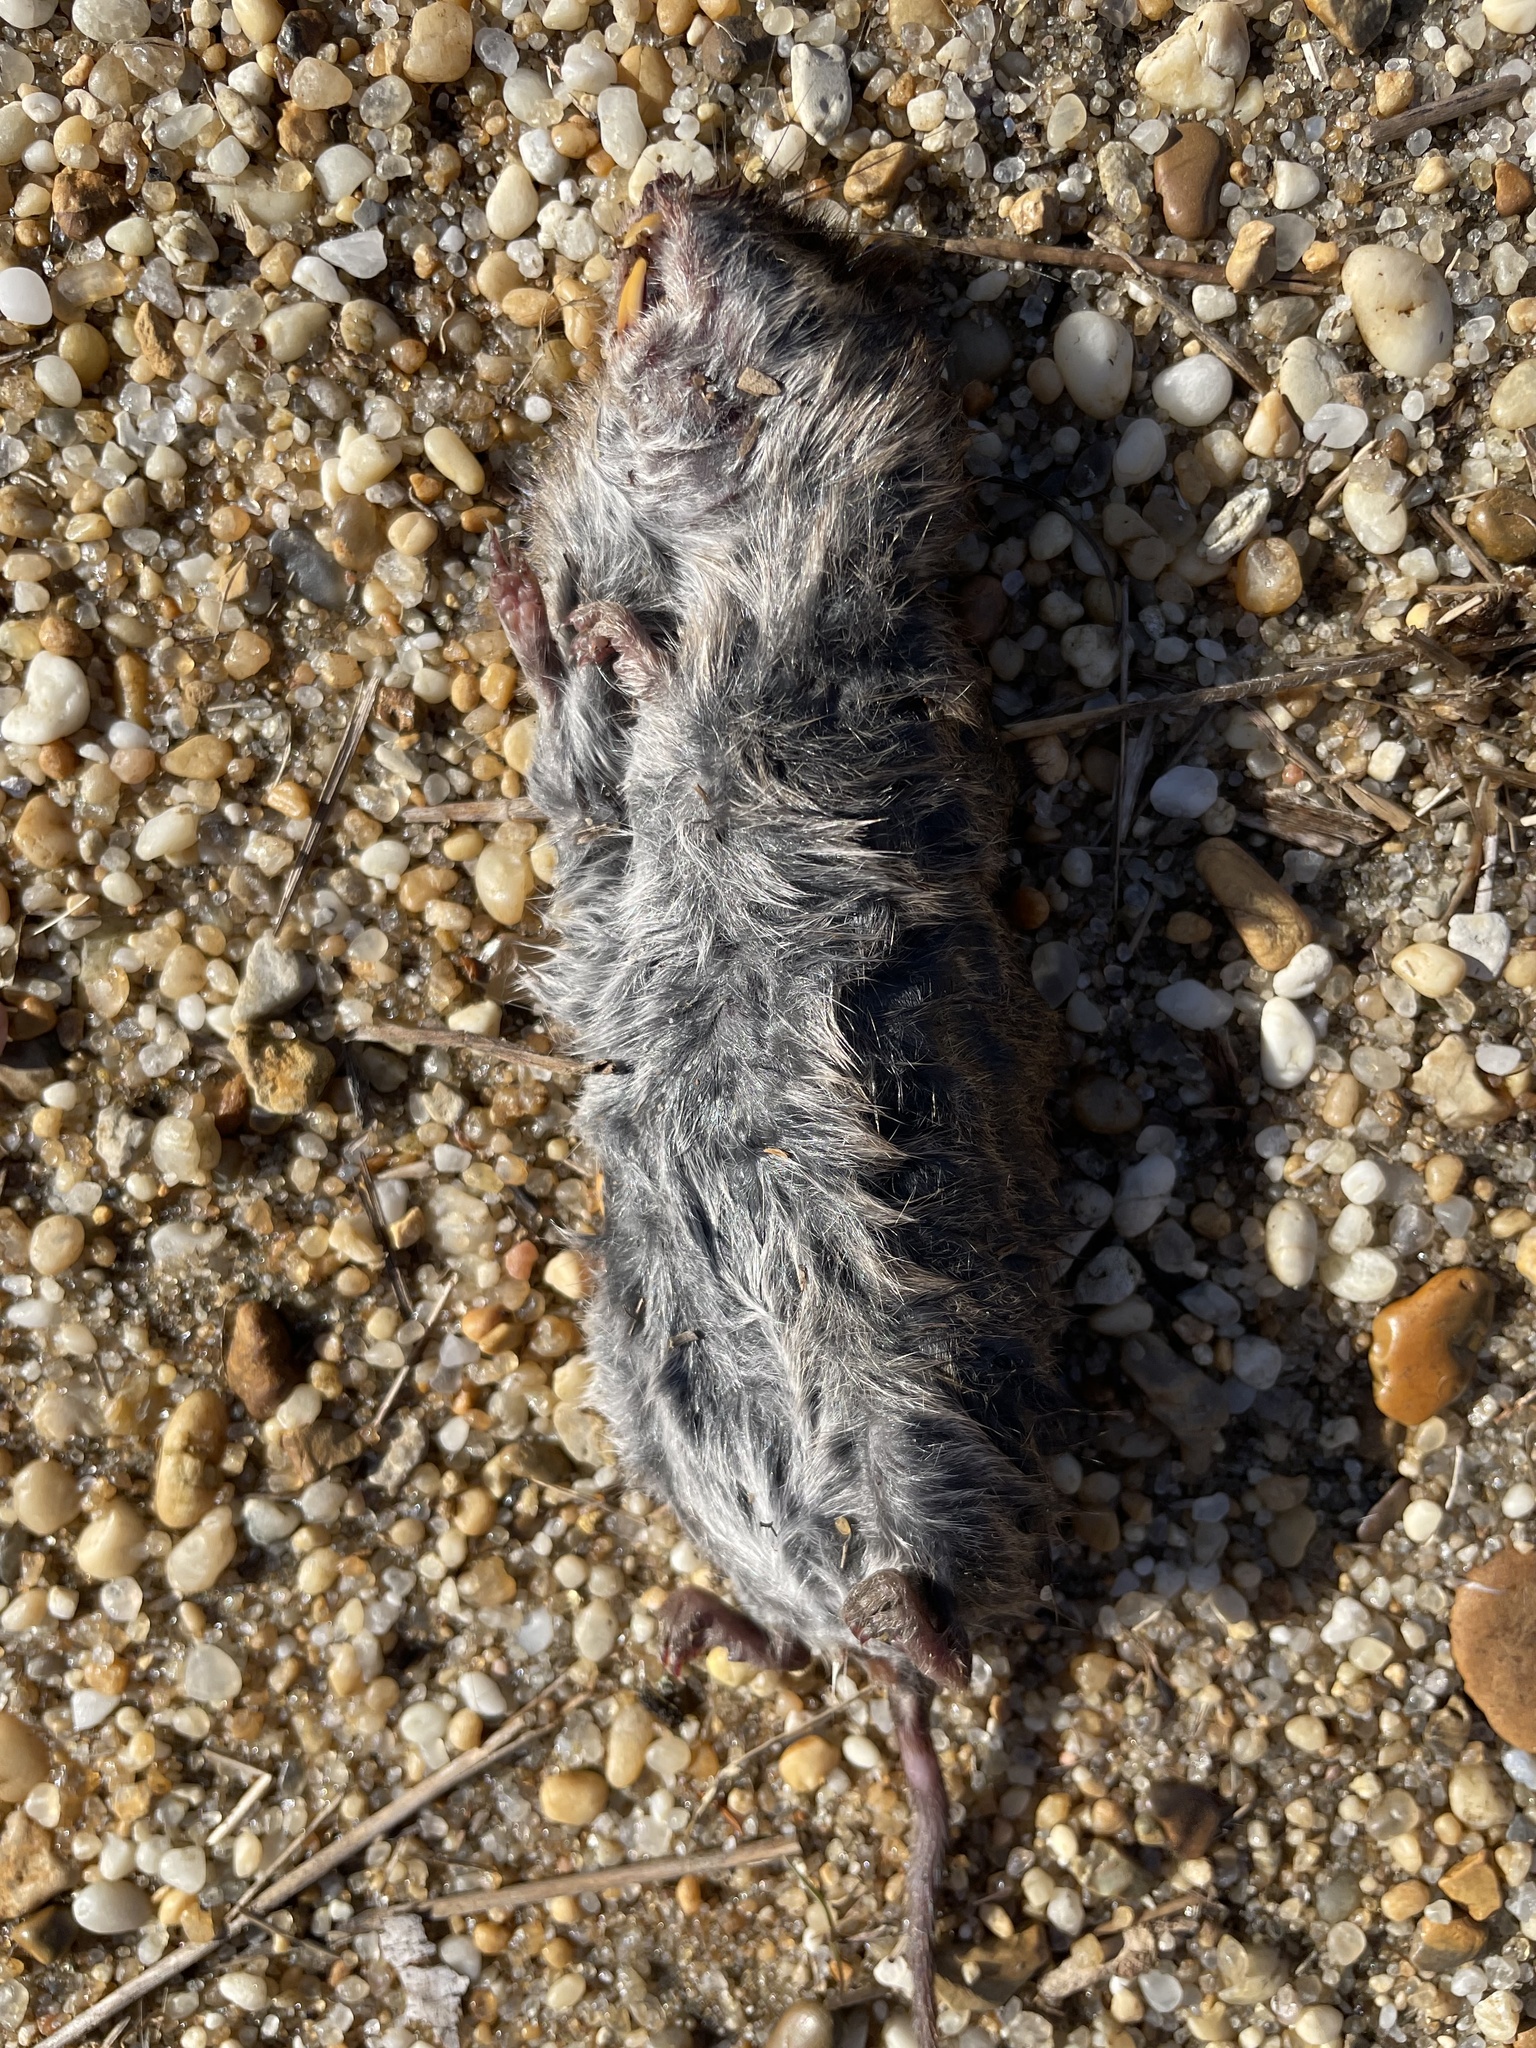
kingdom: Animalia
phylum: Chordata
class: Mammalia
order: Soricomorpha
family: Soricidae
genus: Blarina
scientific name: Blarina brevicauda
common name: Northern short-tailed shrew
